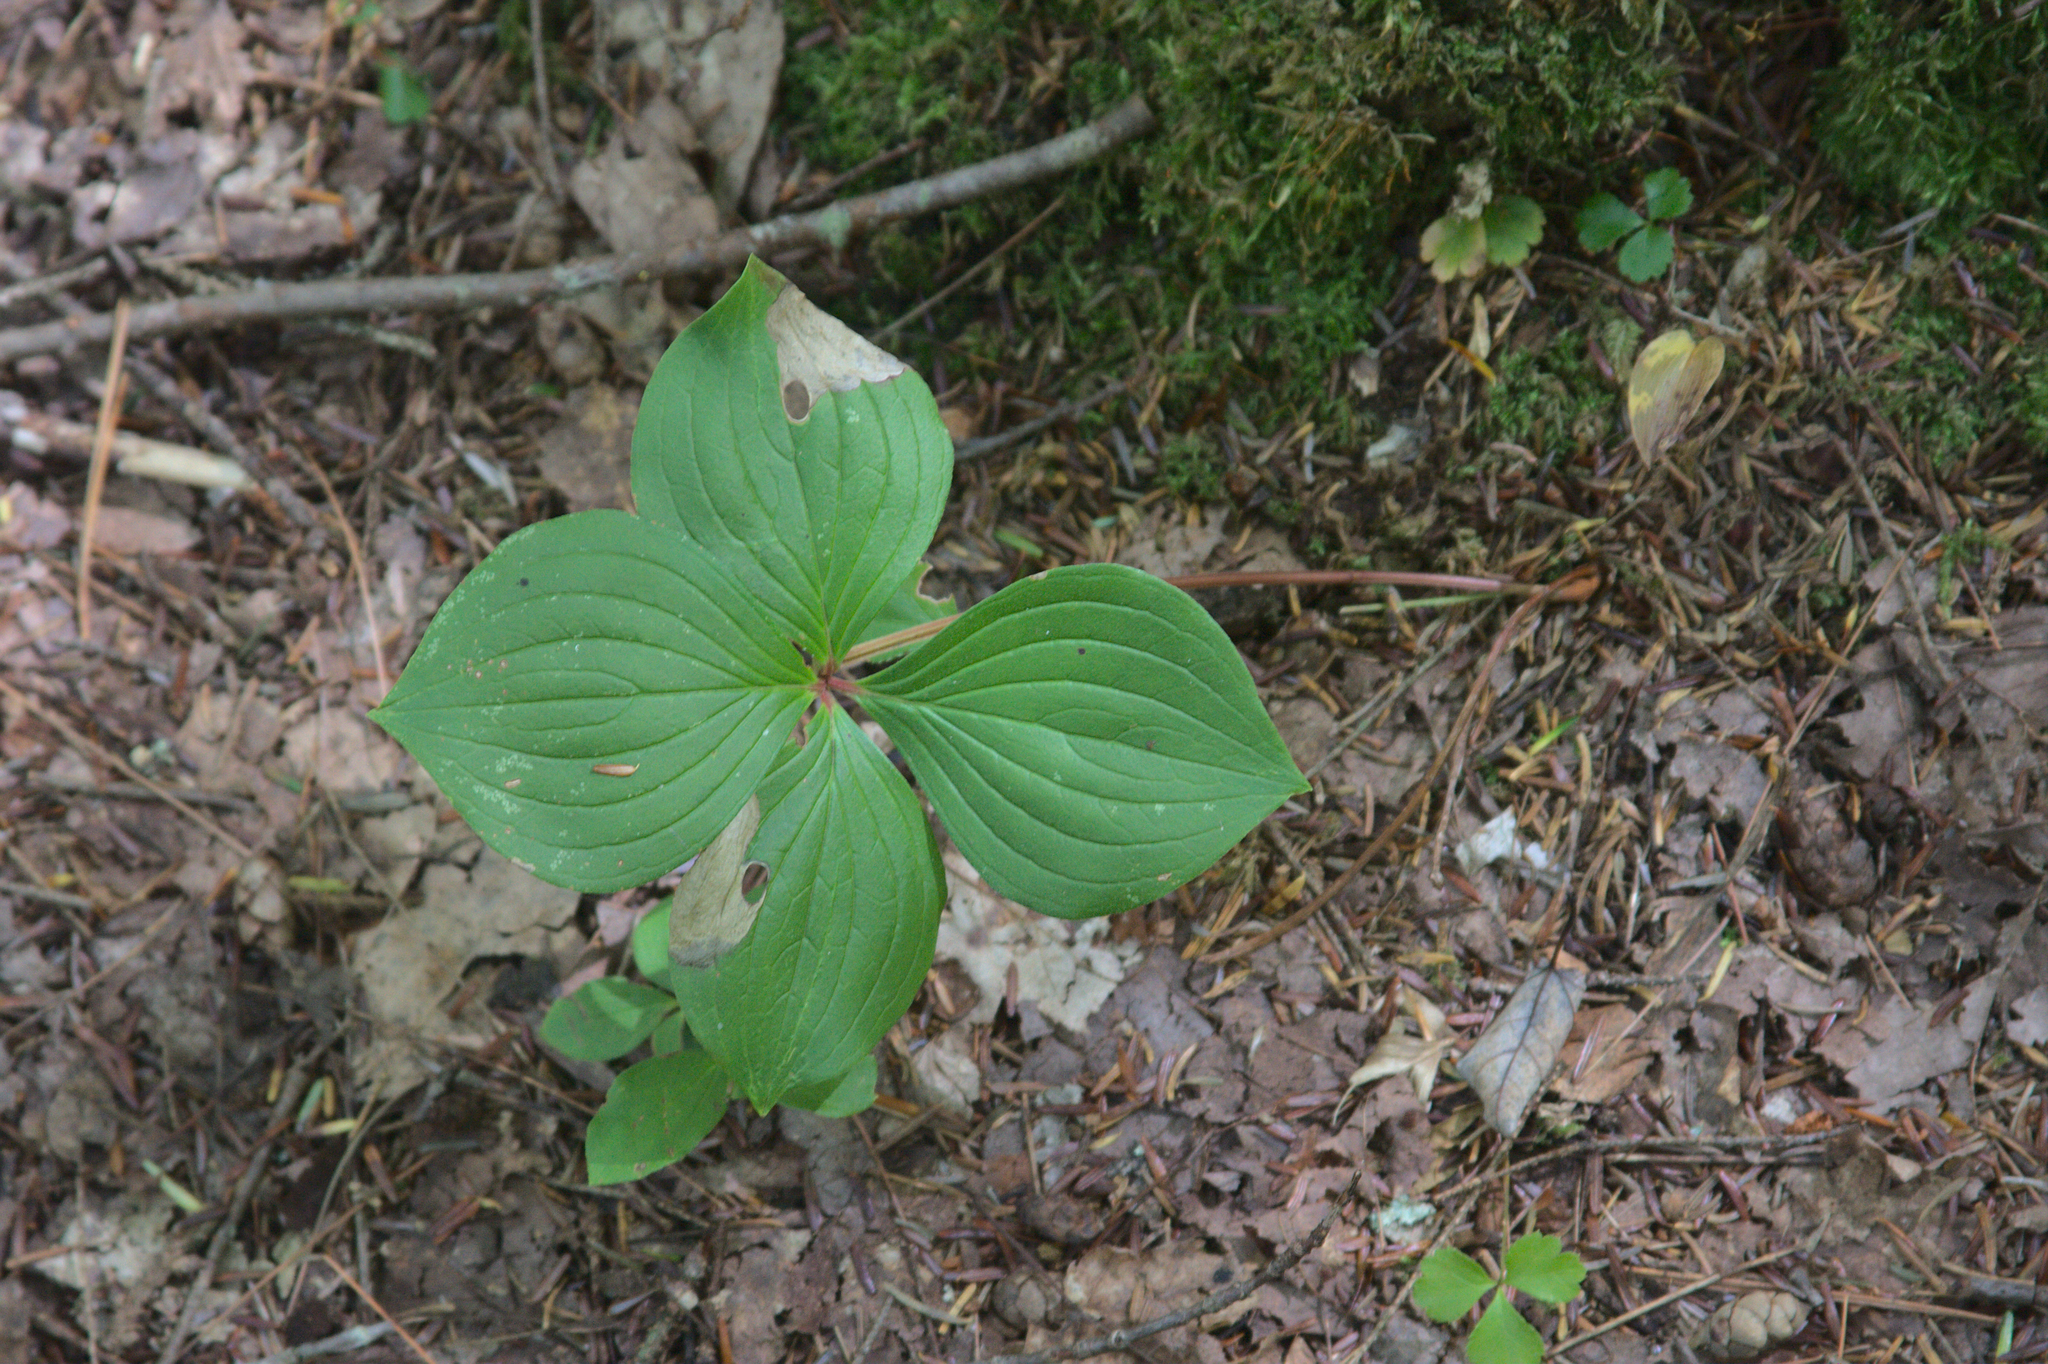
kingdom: Plantae
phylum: Tracheophyta
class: Magnoliopsida
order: Cornales
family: Cornaceae
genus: Cornus
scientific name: Cornus canadensis
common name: Creeping dogwood
